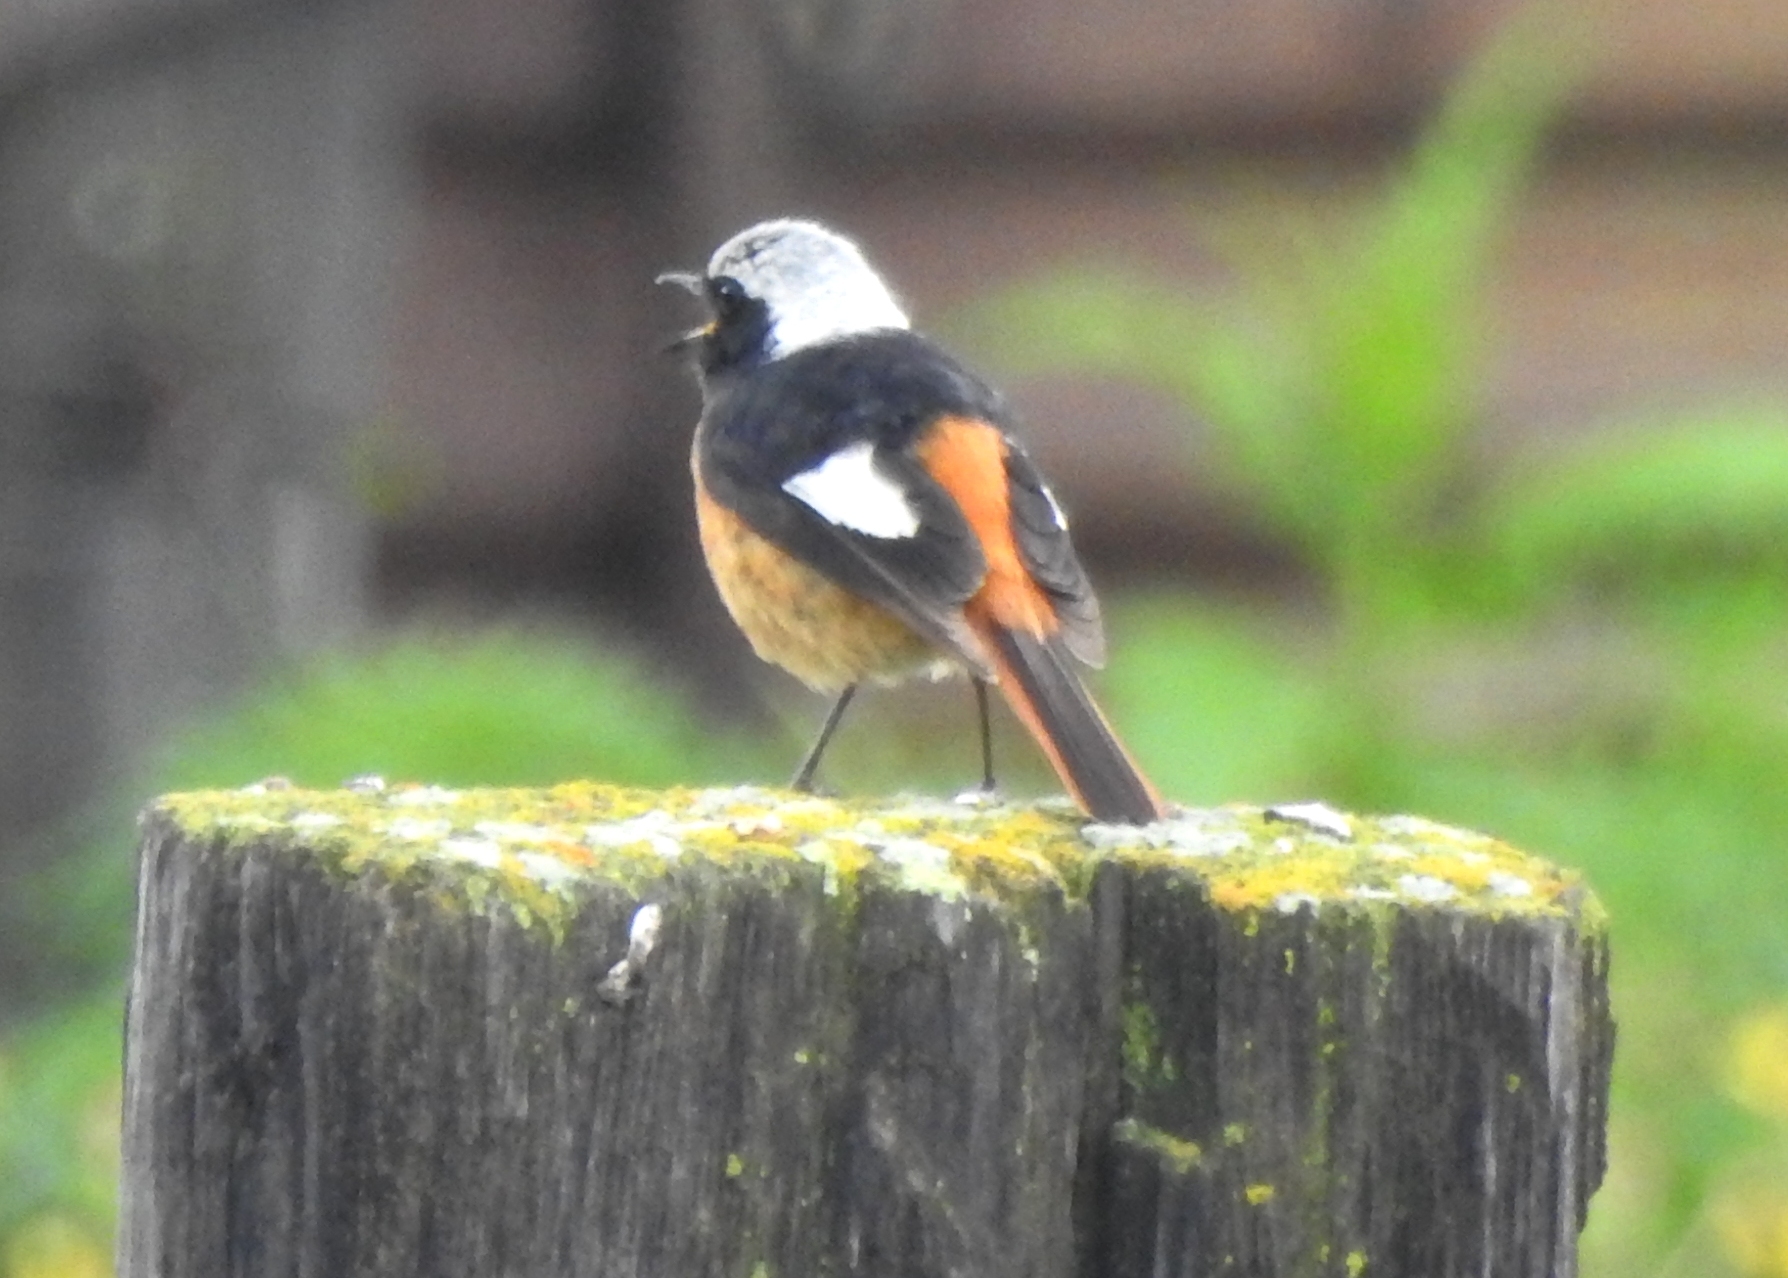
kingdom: Animalia
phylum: Chordata
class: Aves
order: Passeriformes
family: Muscicapidae
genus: Phoenicurus
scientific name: Phoenicurus auroreus
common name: Daurian redstart
